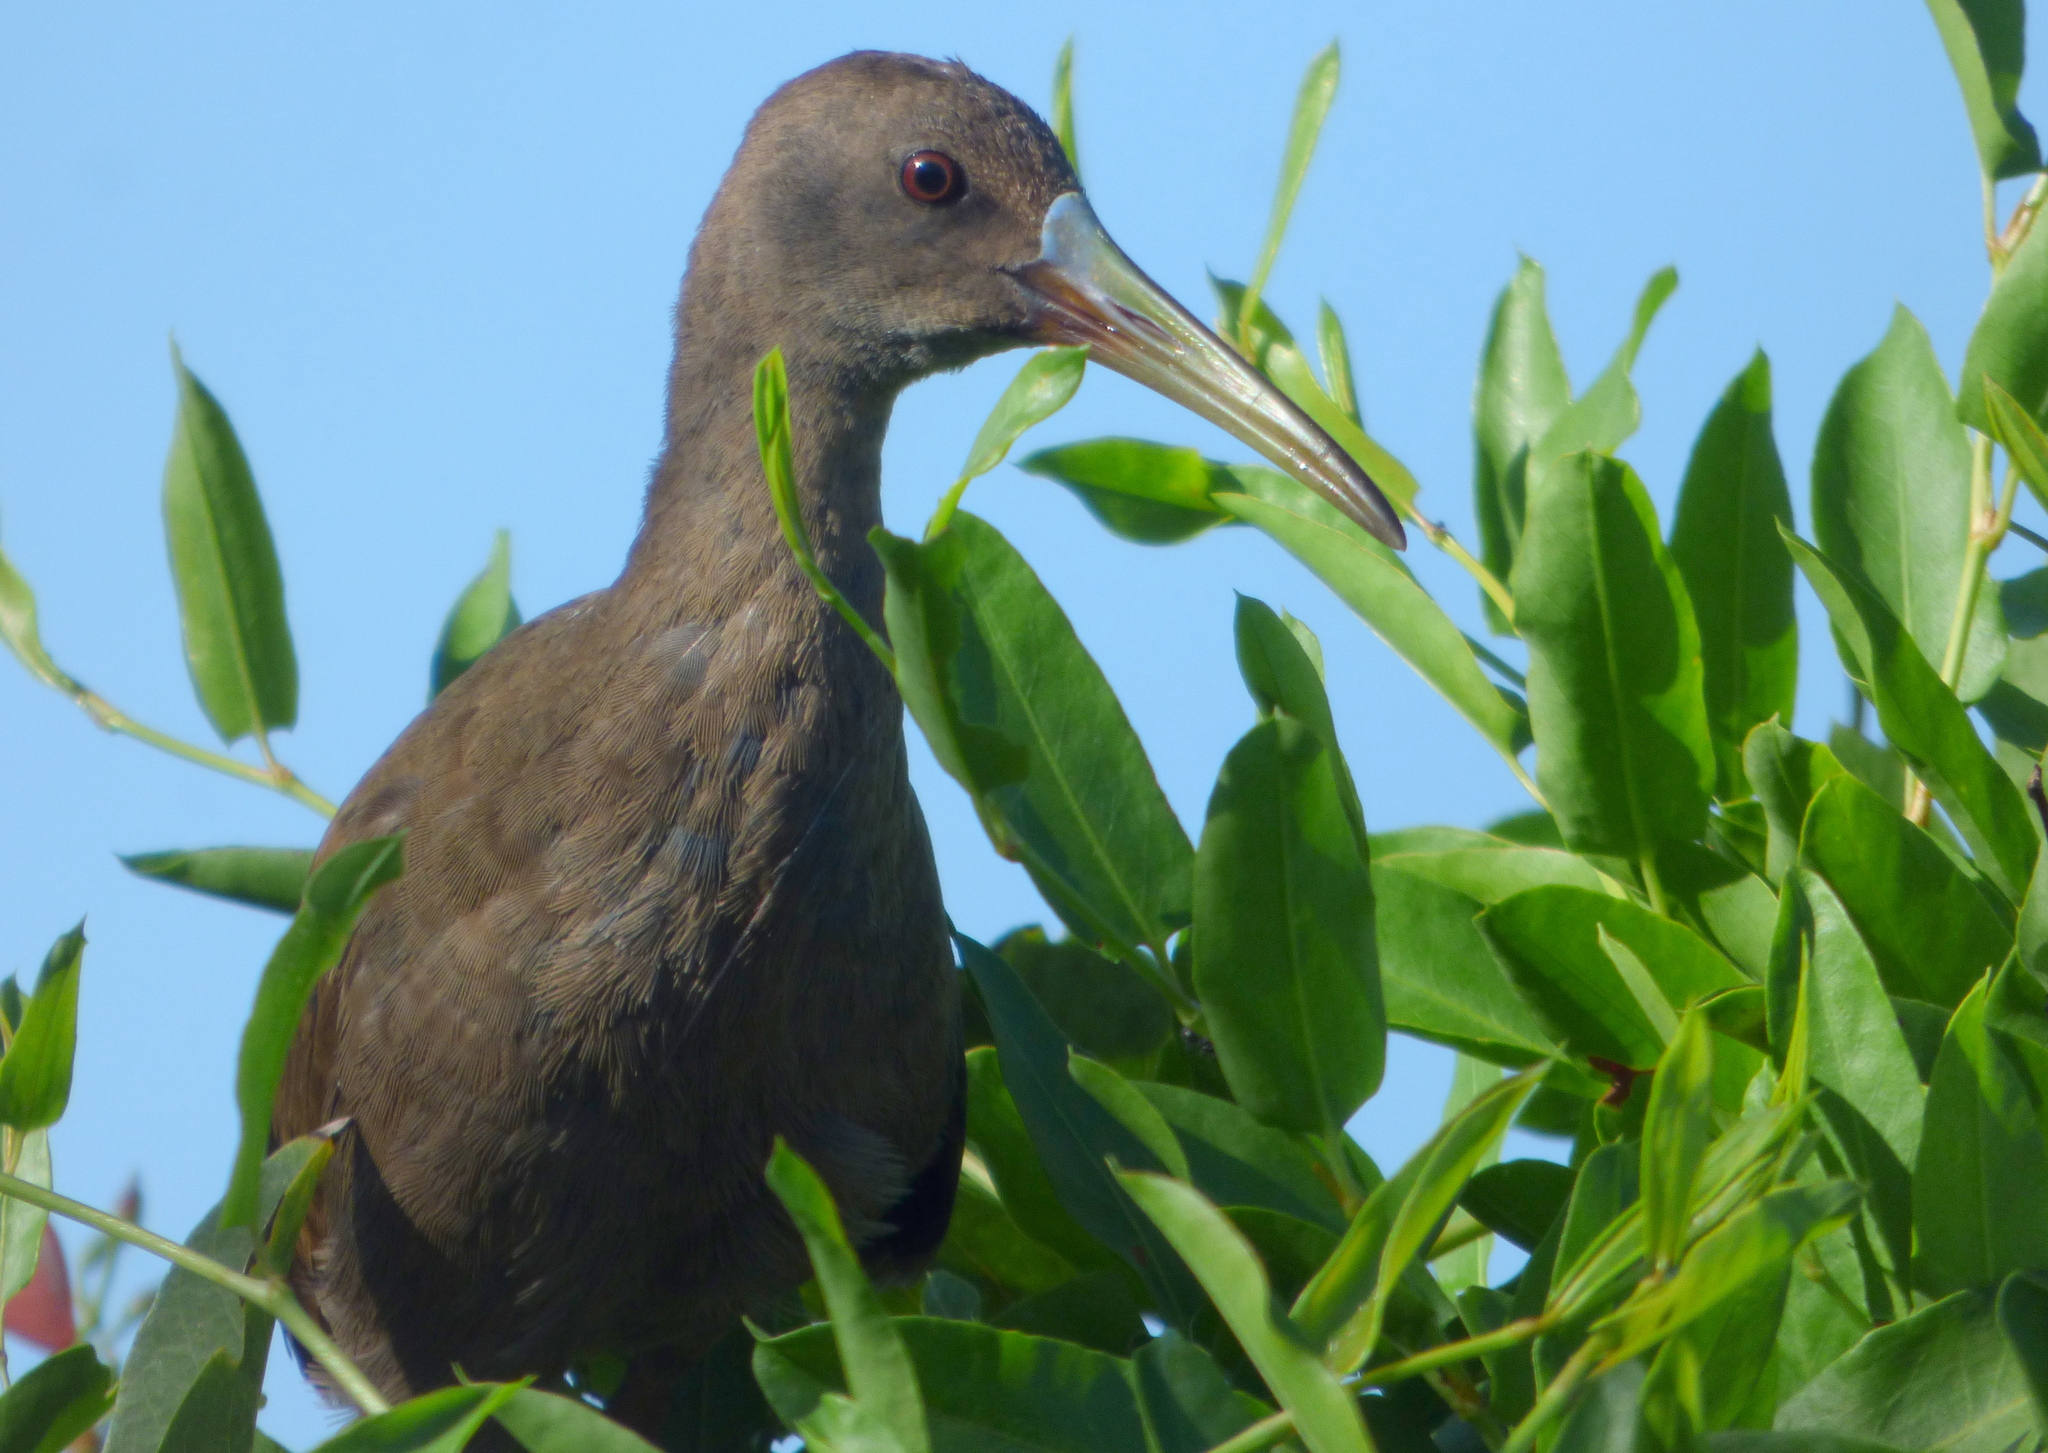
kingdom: Animalia
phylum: Chordata
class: Aves
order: Gruiformes
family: Rallidae
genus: Pardirallus
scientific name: Pardirallus sanguinolentus
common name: Plumbeous rail
